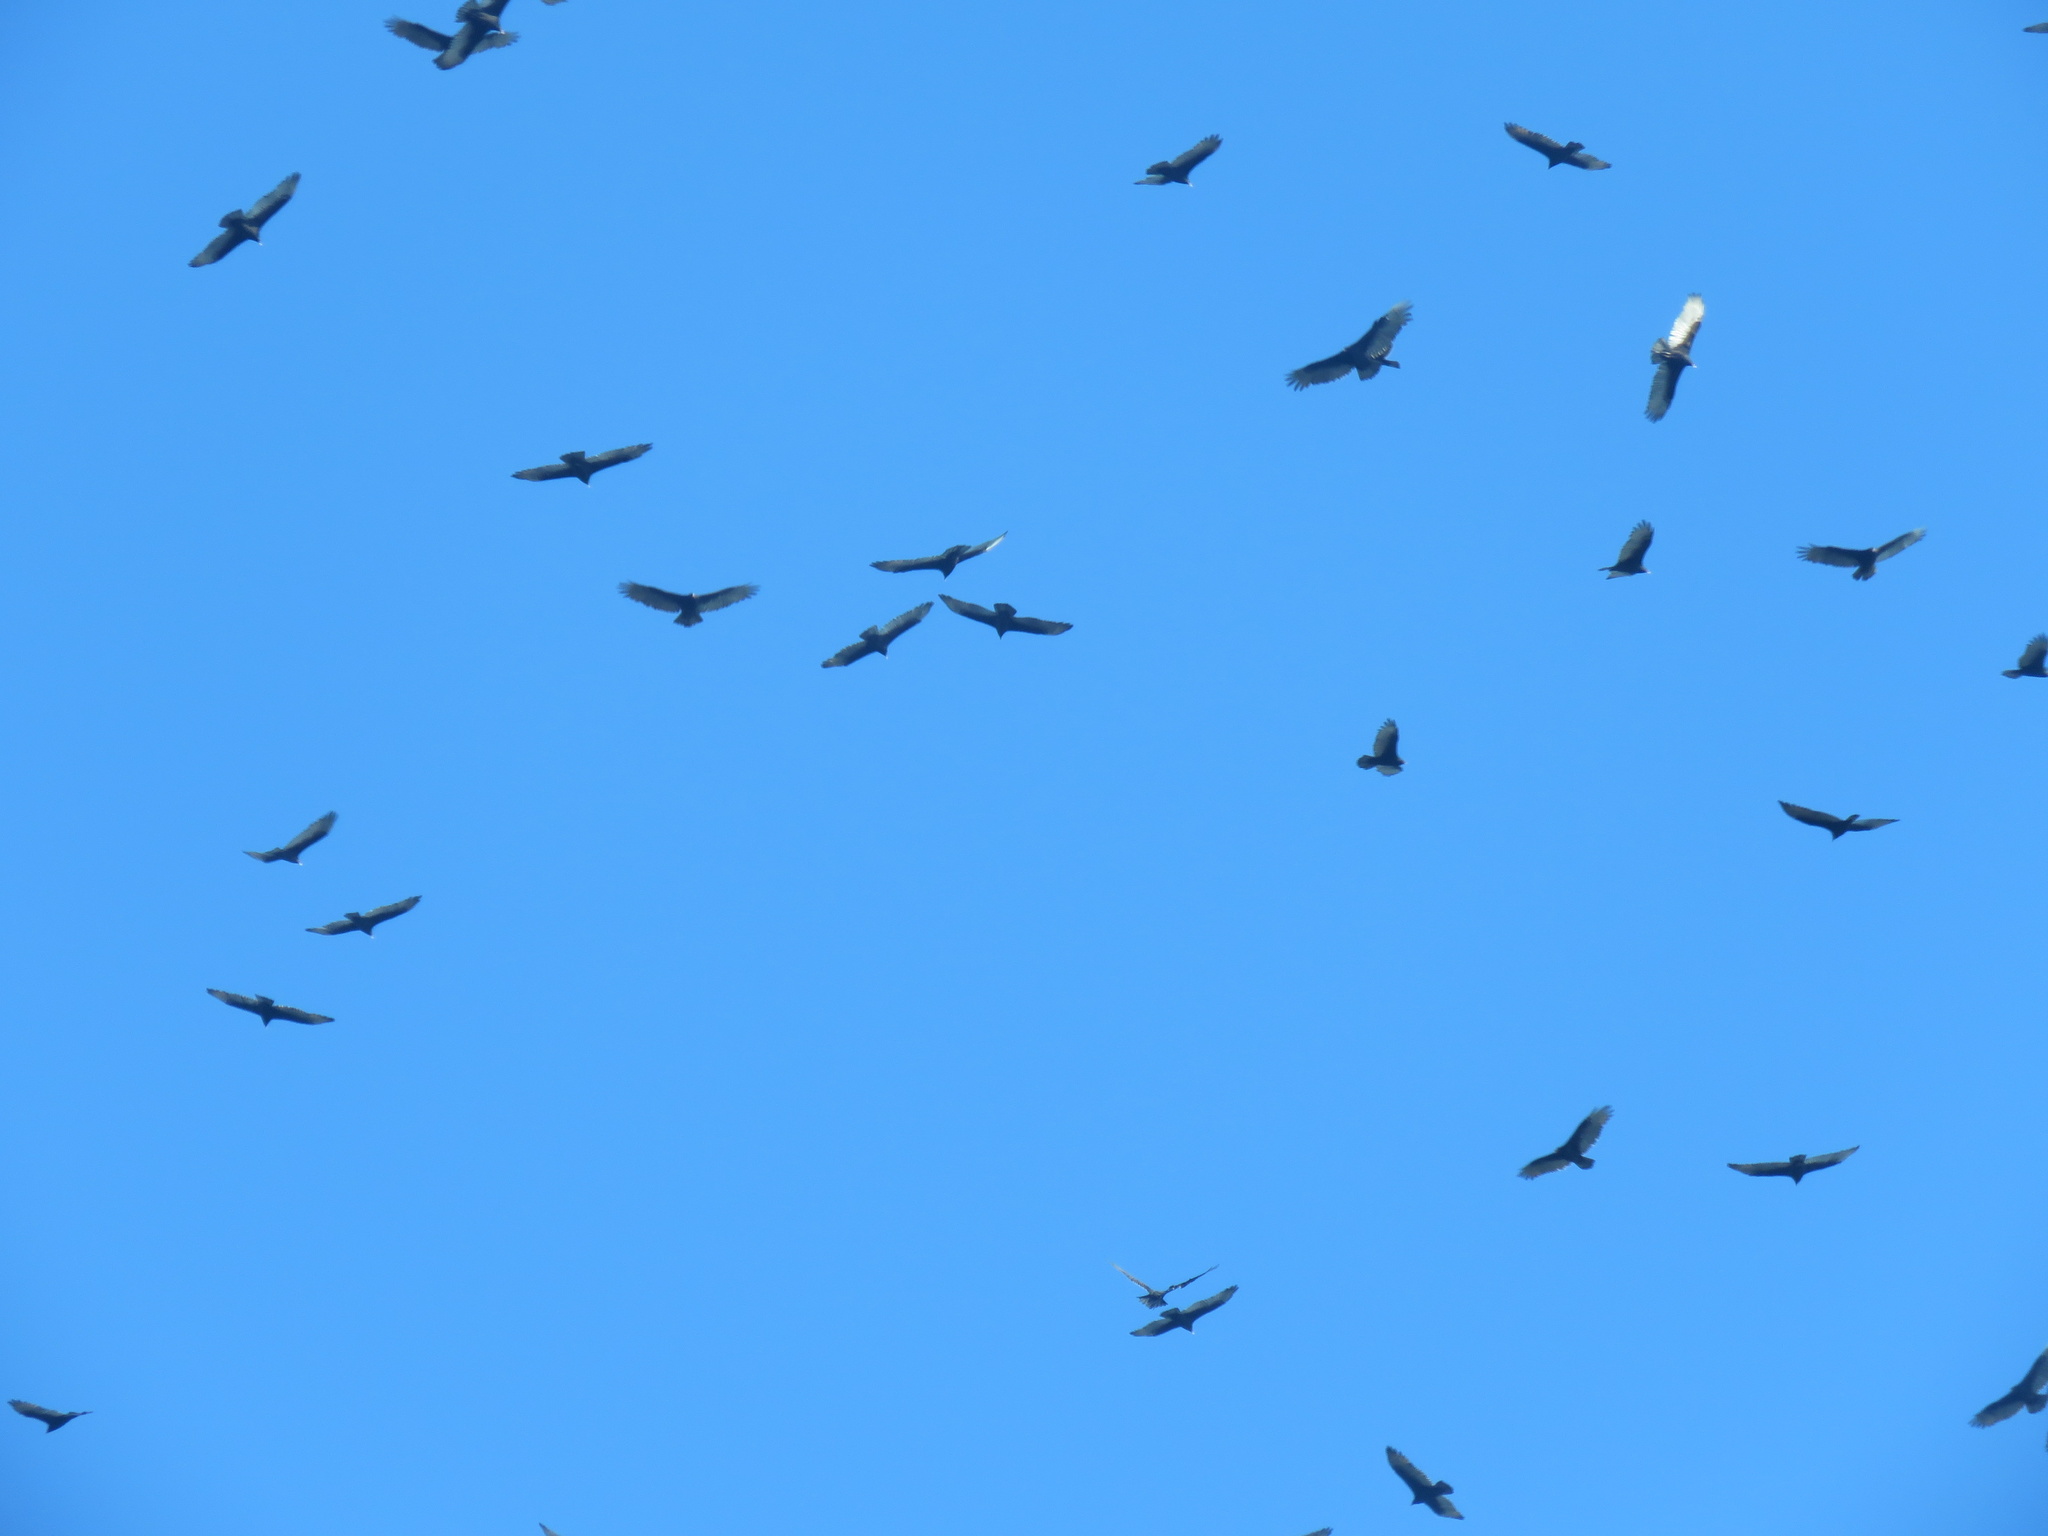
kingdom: Animalia
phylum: Chordata
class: Aves
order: Accipitriformes
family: Cathartidae
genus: Cathartes
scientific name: Cathartes aura
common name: Turkey vulture
